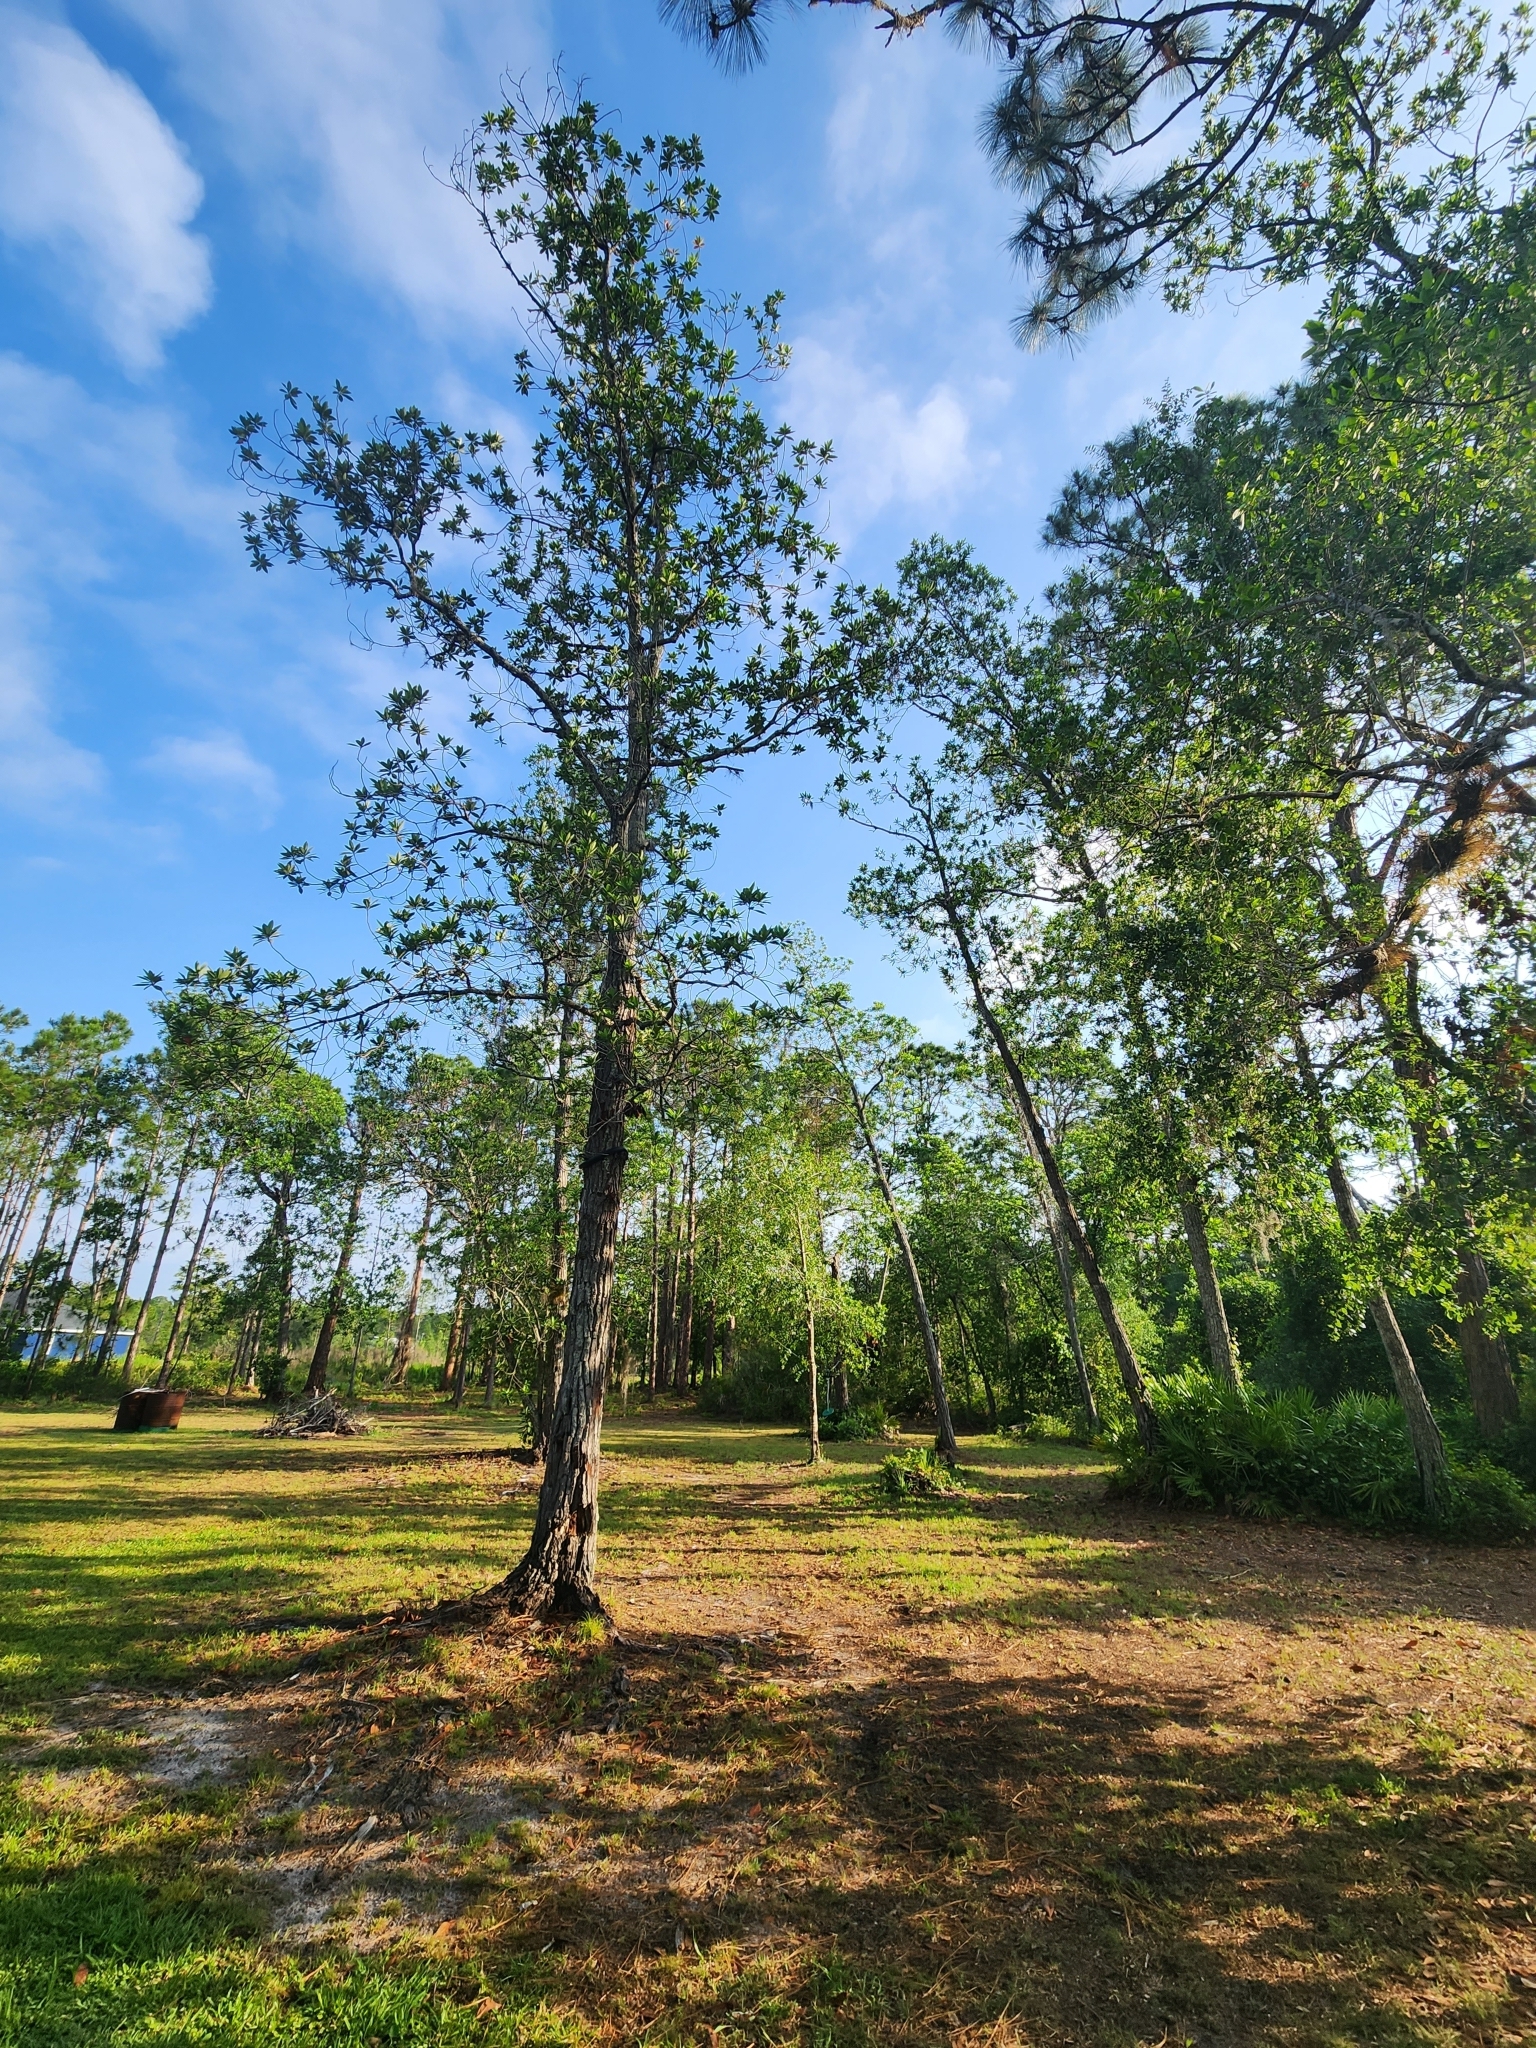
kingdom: Plantae
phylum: Tracheophyta
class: Magnoliopsida
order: Ericales
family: Theaceae
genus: Gordonia
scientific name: Gordonia lasianthus
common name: Loblolly bay
